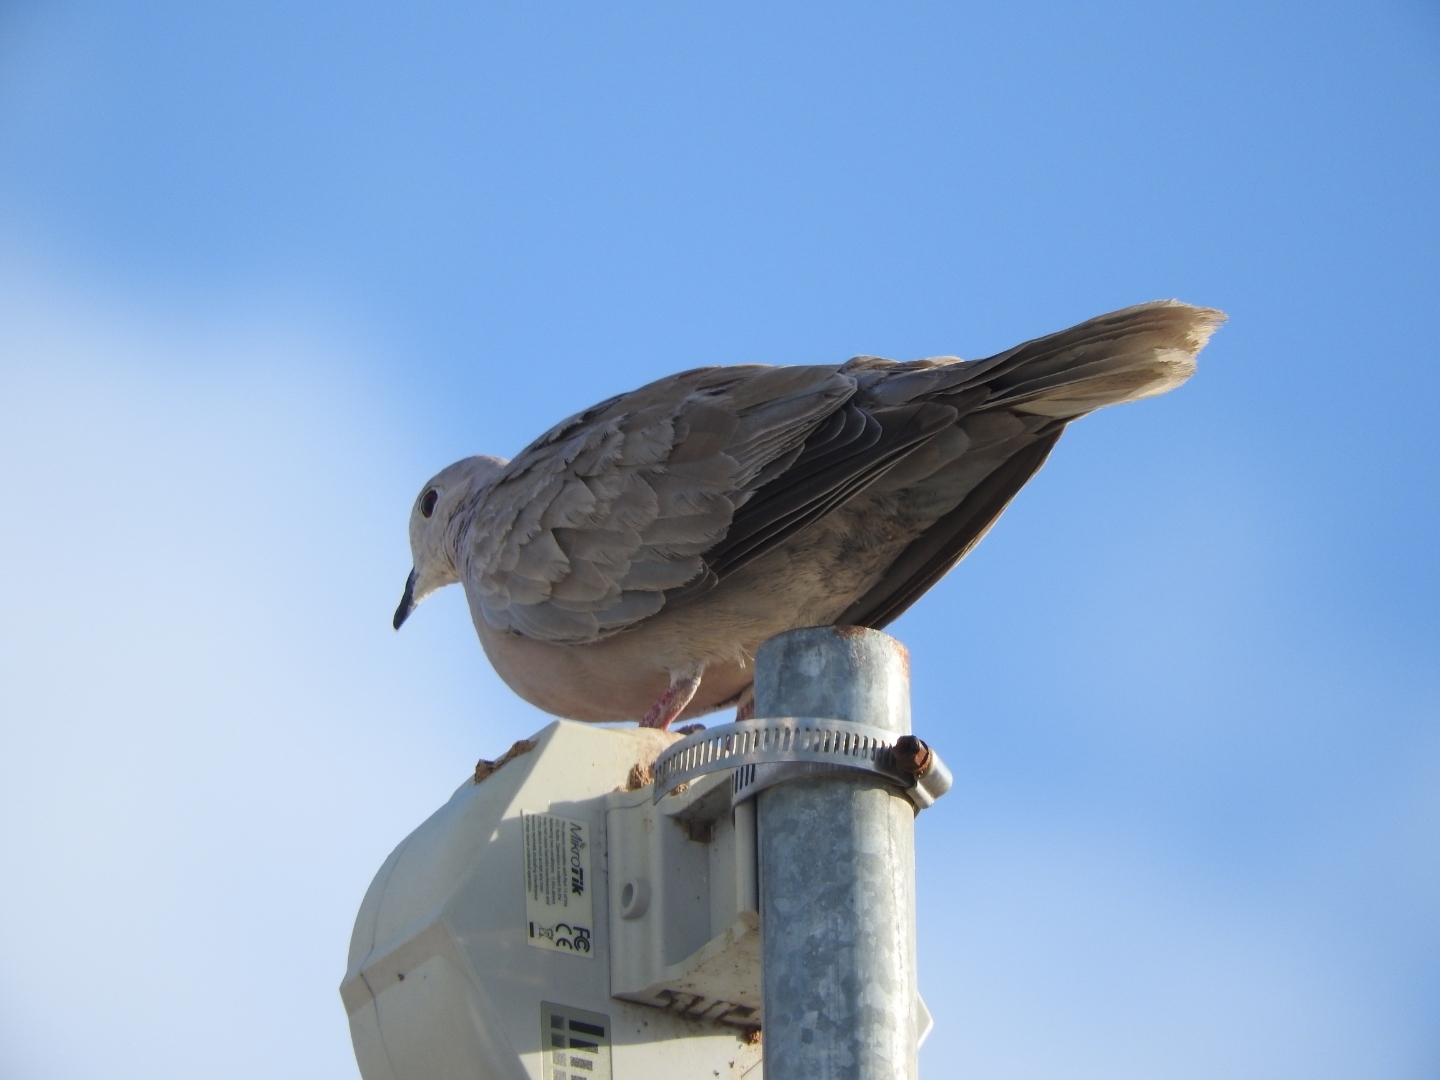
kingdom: Animalia
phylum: Chordata
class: Aves
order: Columbiformes
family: Columbidae
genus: Streptopelia
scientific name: Streptopelia decaocto
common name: Eurasian collared dove
